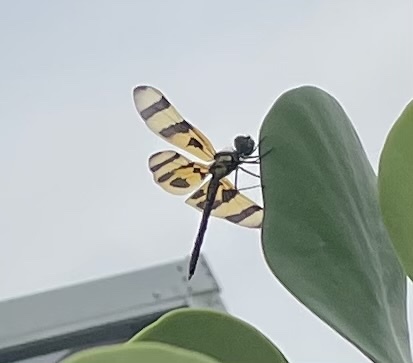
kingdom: Animalia
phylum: Arthropoda
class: Insecta
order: Odonata
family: Libellulidae
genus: Celithemis
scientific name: Celithemis eponina
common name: Halloween pennant
